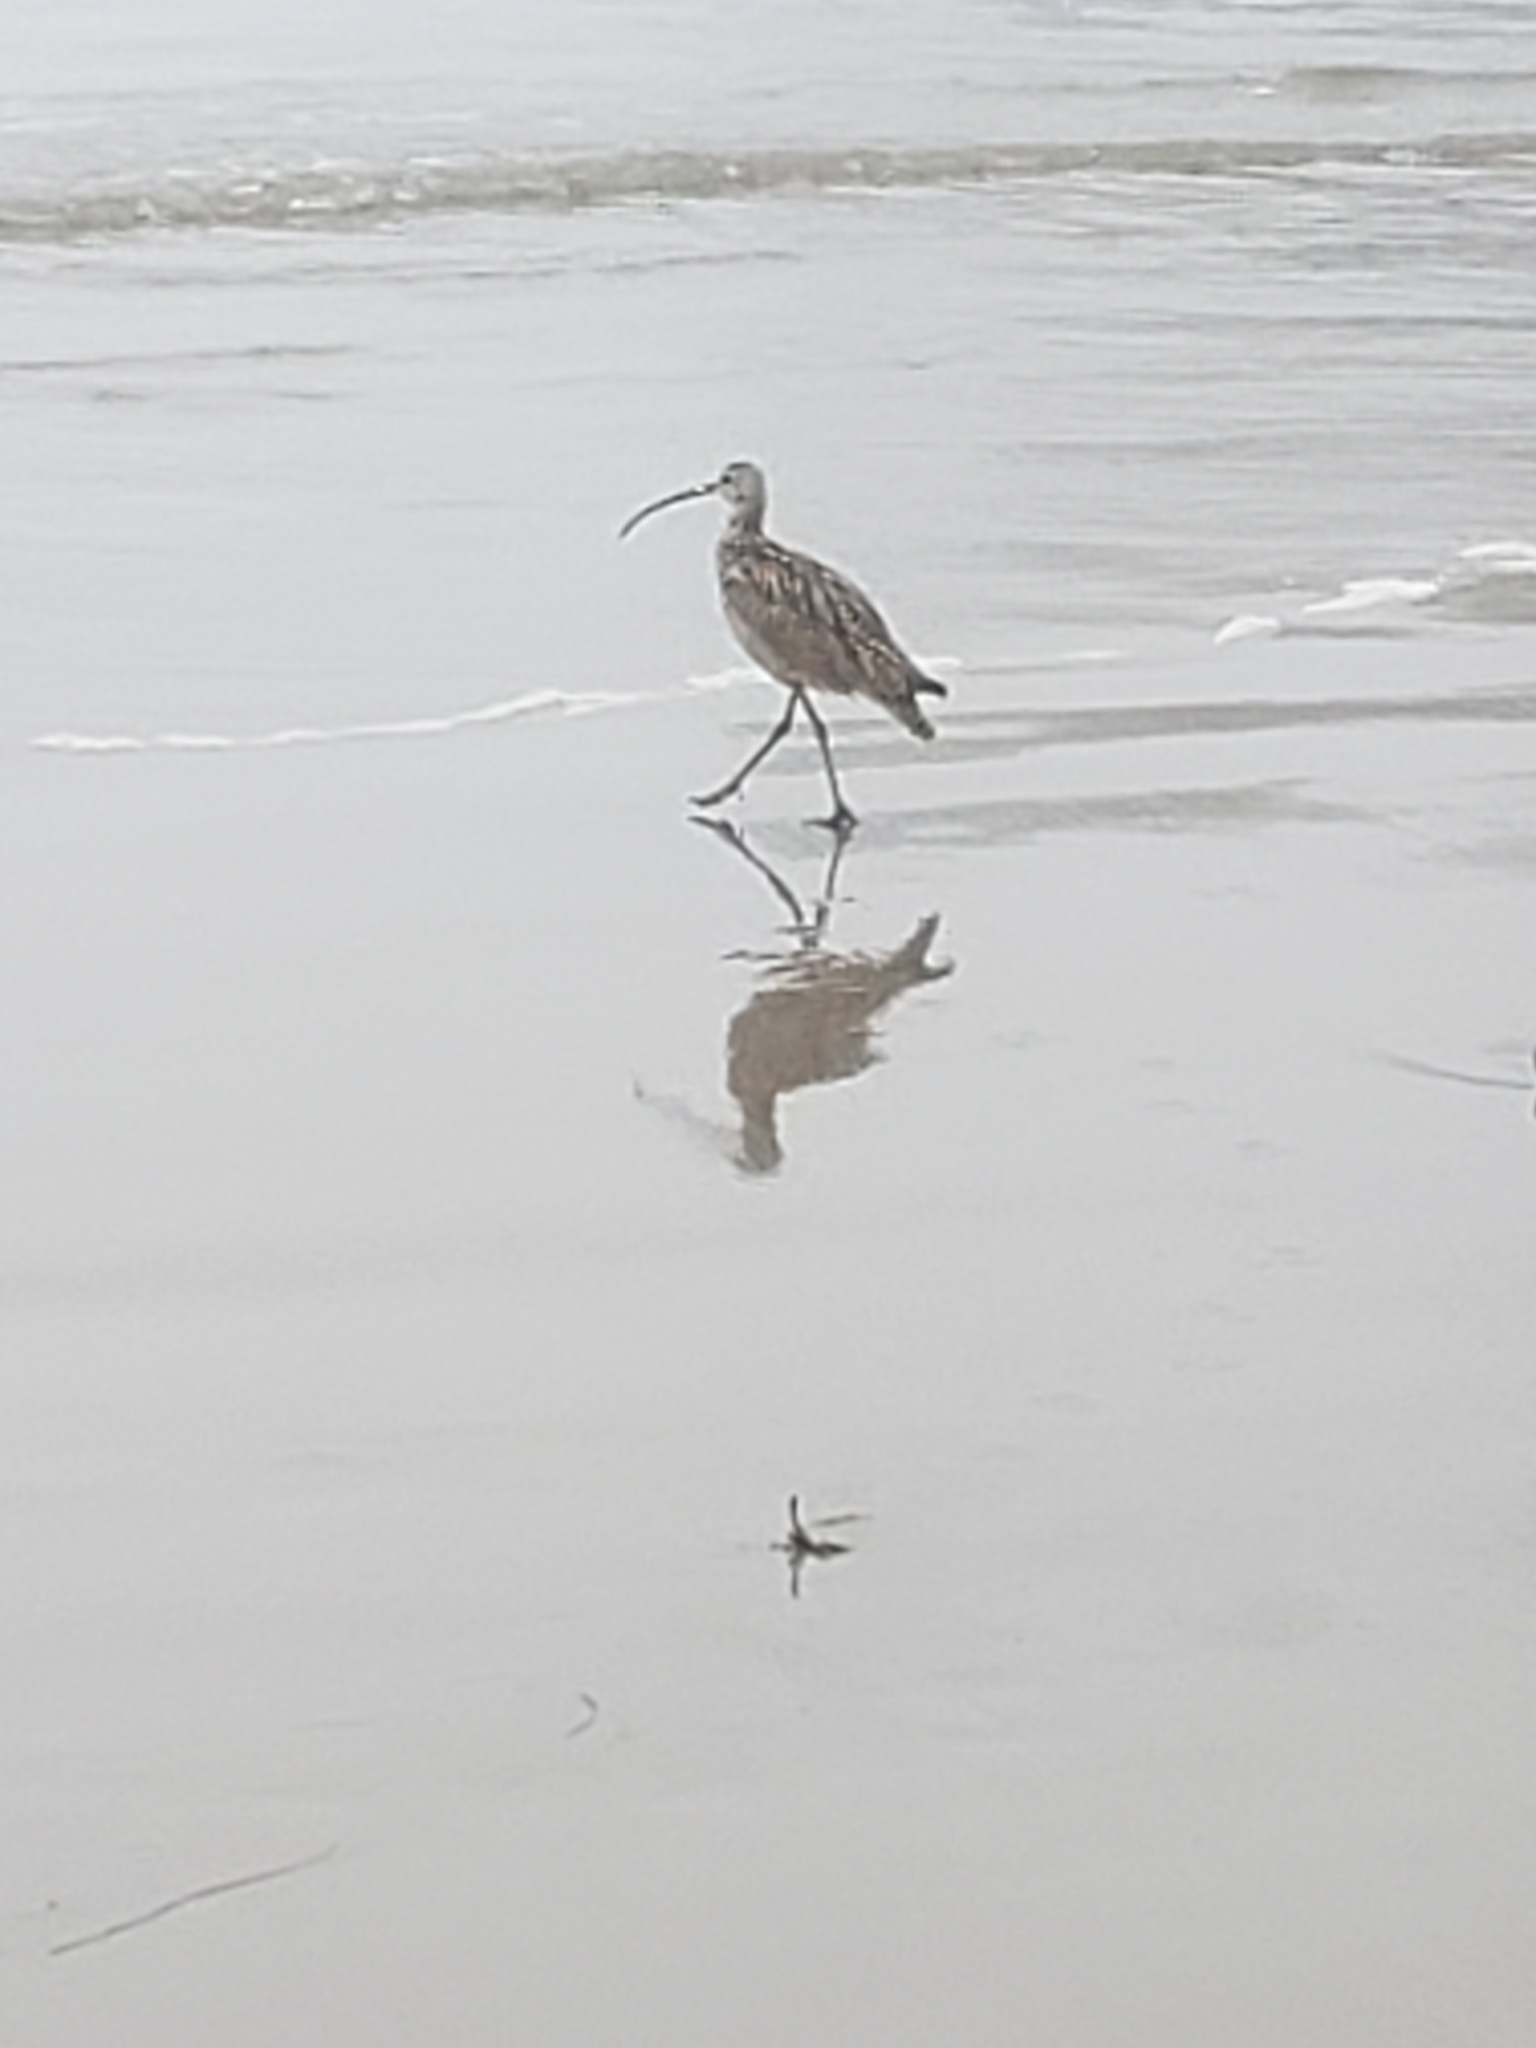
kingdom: Animalia
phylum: Chordata
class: Aves
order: Charadriiformes
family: Scolopacidae
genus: Numenius
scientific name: Numenius americanus
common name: Long-billed curlew
